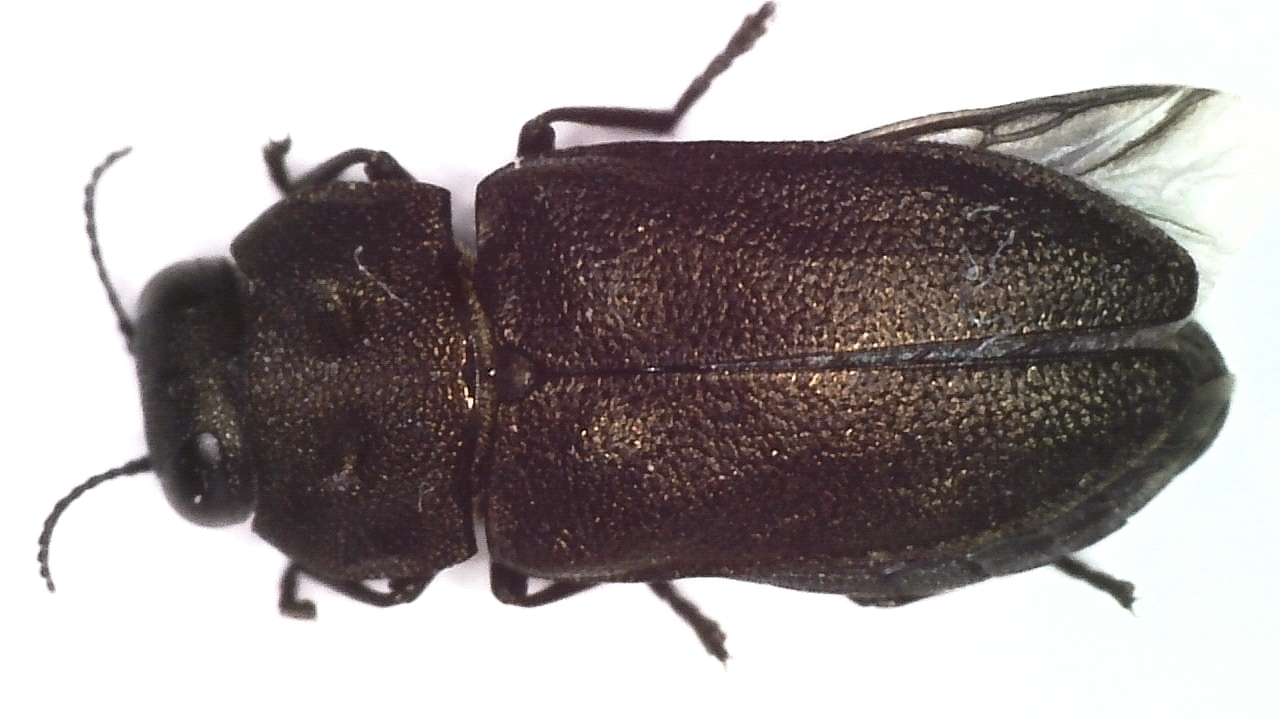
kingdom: Animalia
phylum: Arthropoda
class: Insecta
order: Coleoptera
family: Buprestidae
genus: Anthaxia
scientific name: Anthaxia quadripunctata
